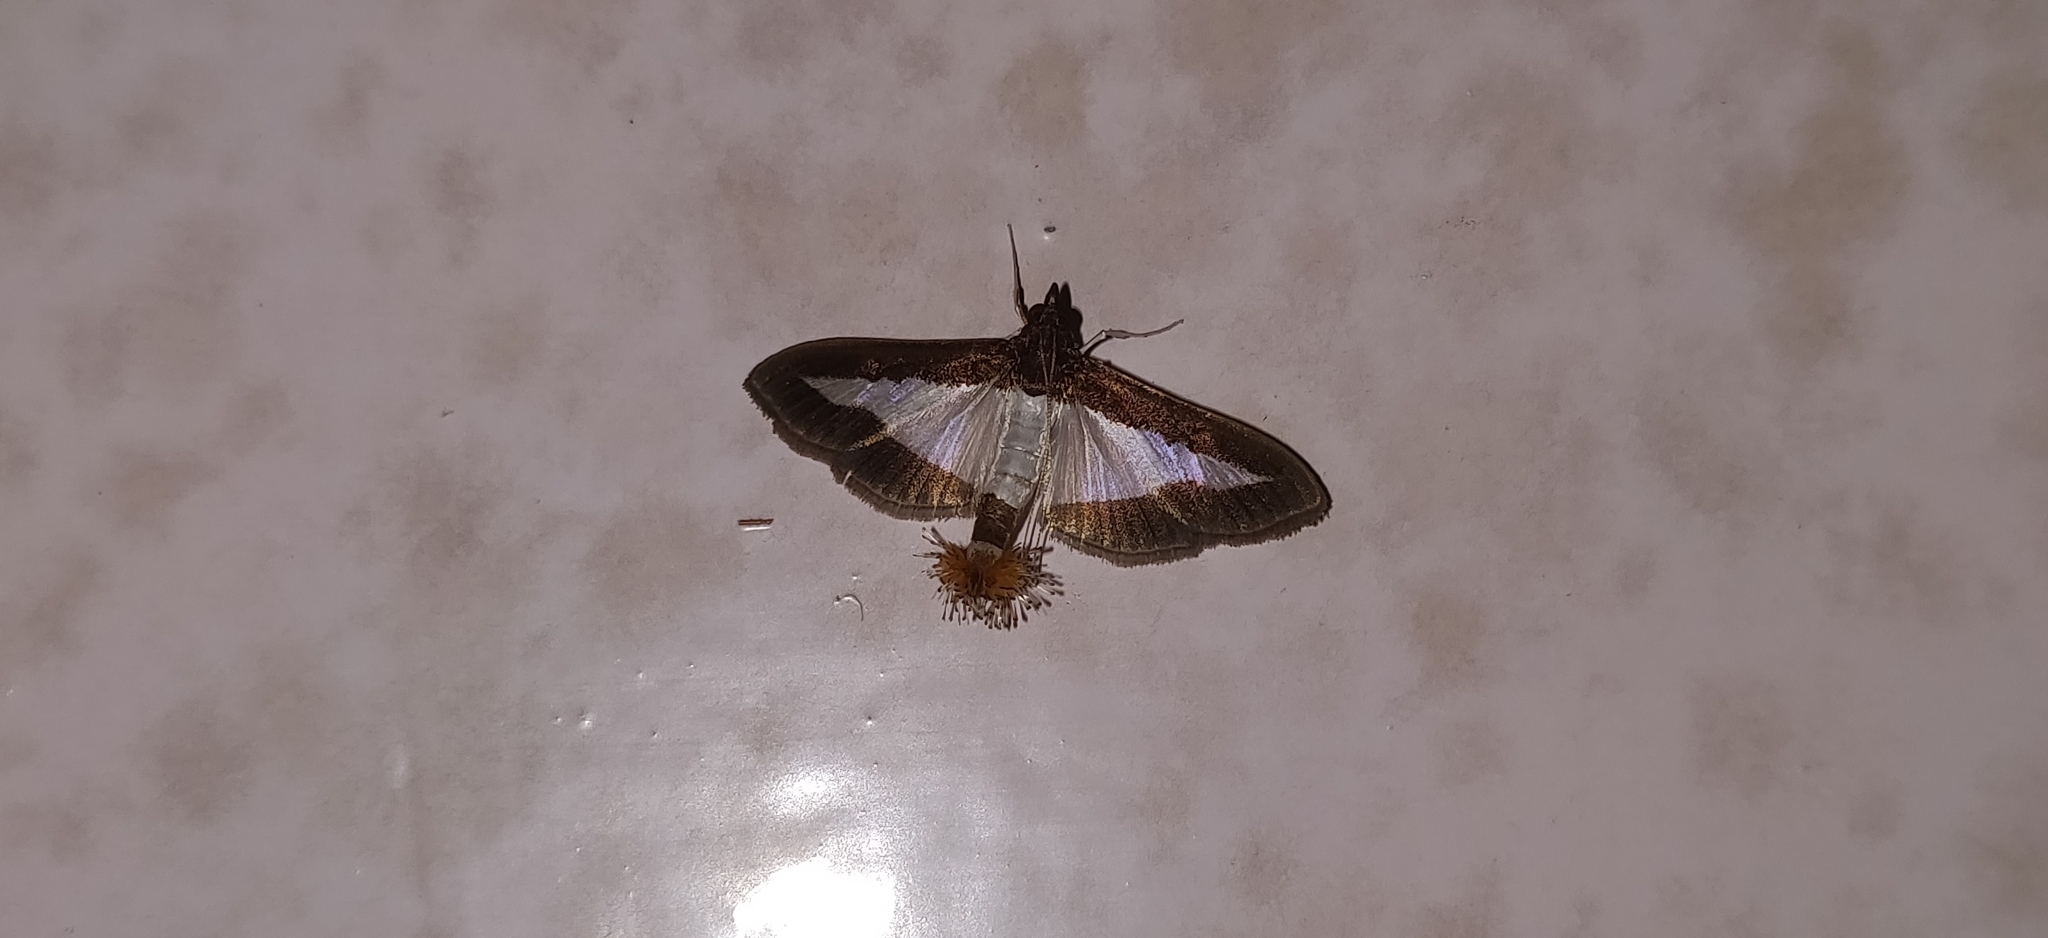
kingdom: Animalia
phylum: Arthropoda
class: Insecta
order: Lepidoptera
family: Crambidae
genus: Diaphania
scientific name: Diaphania indica
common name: Cucumber moth
